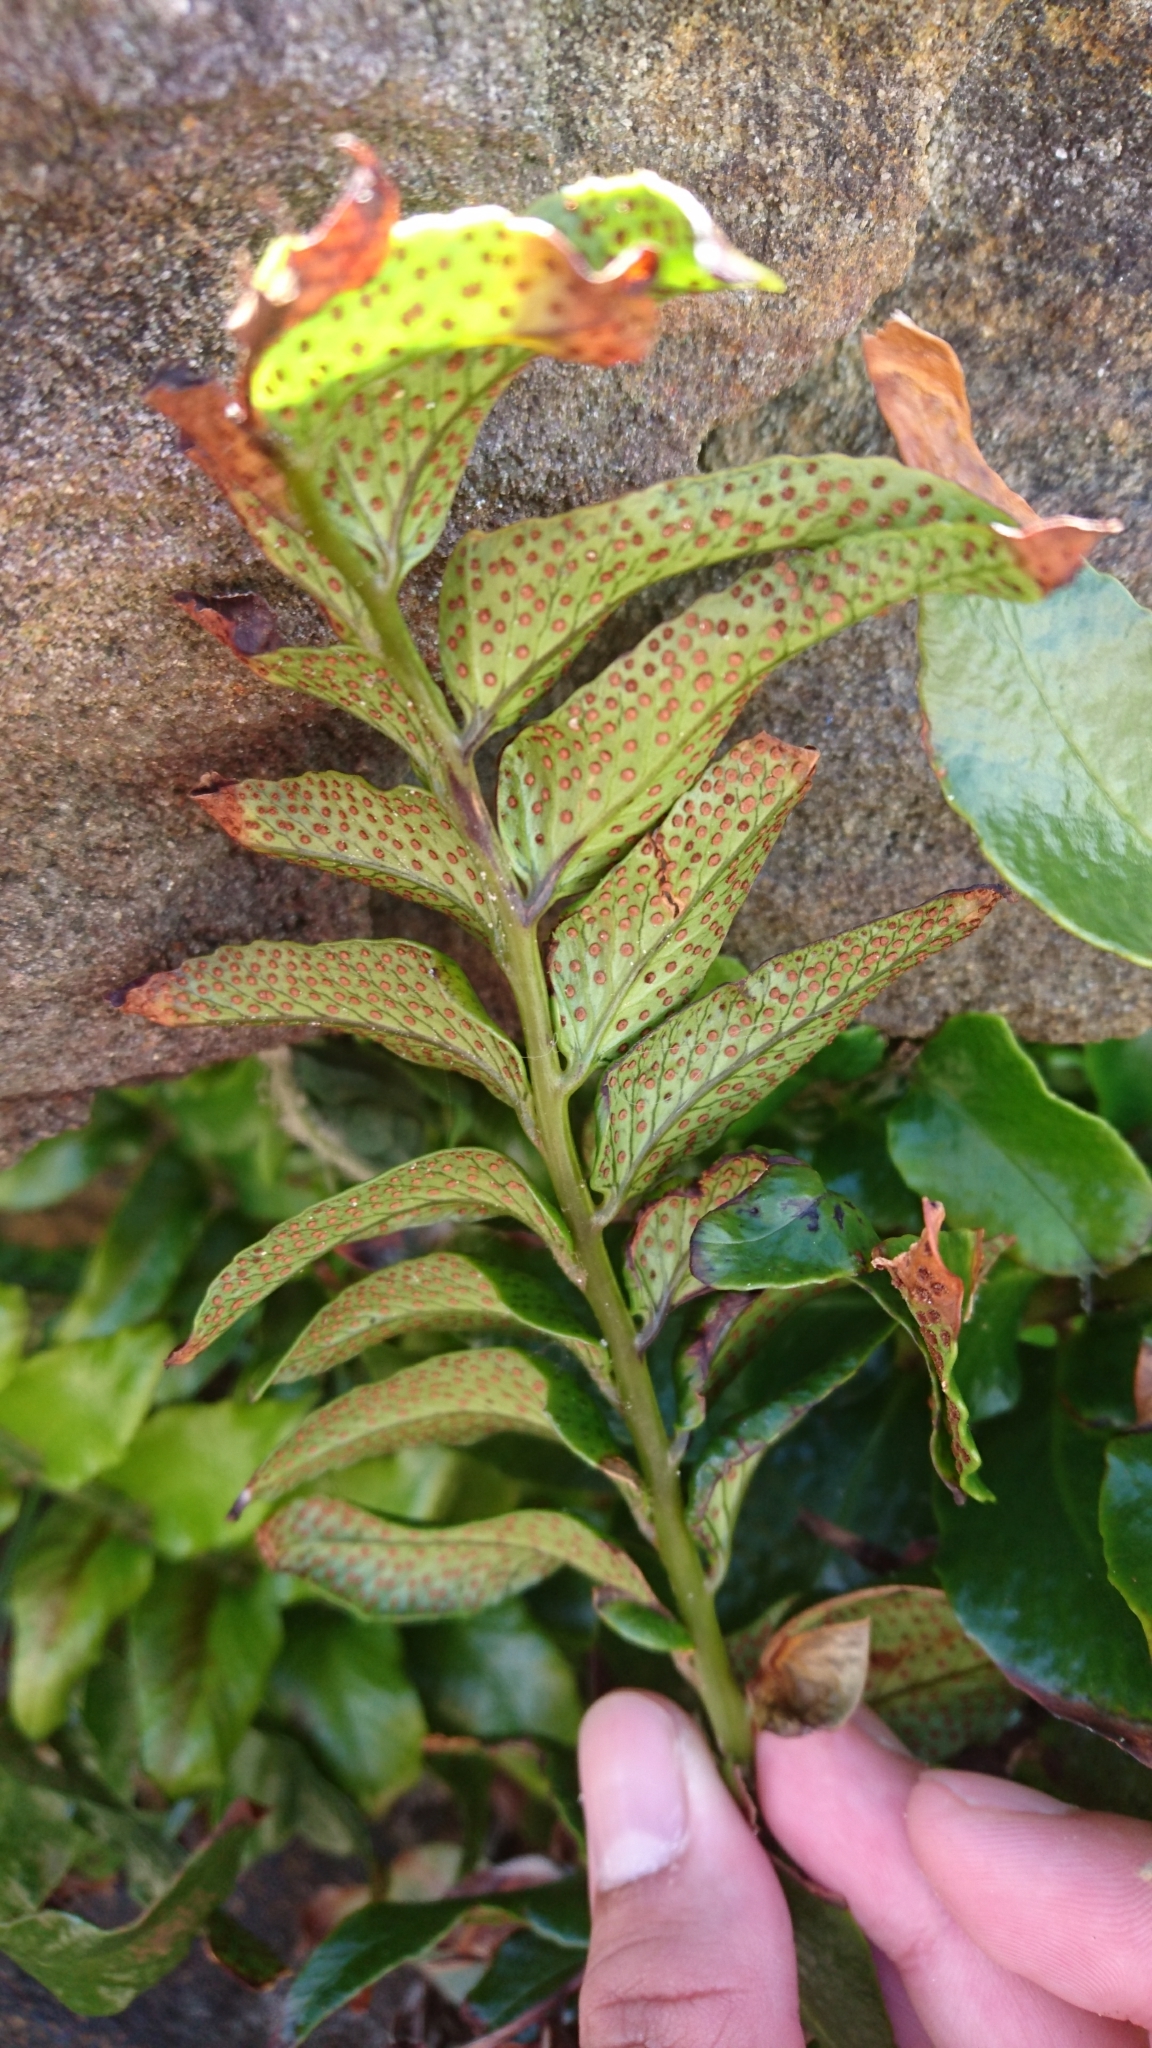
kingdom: Plantae
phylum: Tracheophyta
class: Polypodiopsida
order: Polypodiales
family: Dryopteridaceae
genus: Cyrtomium
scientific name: Cyrtomium falcatum
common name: House holly-fern
